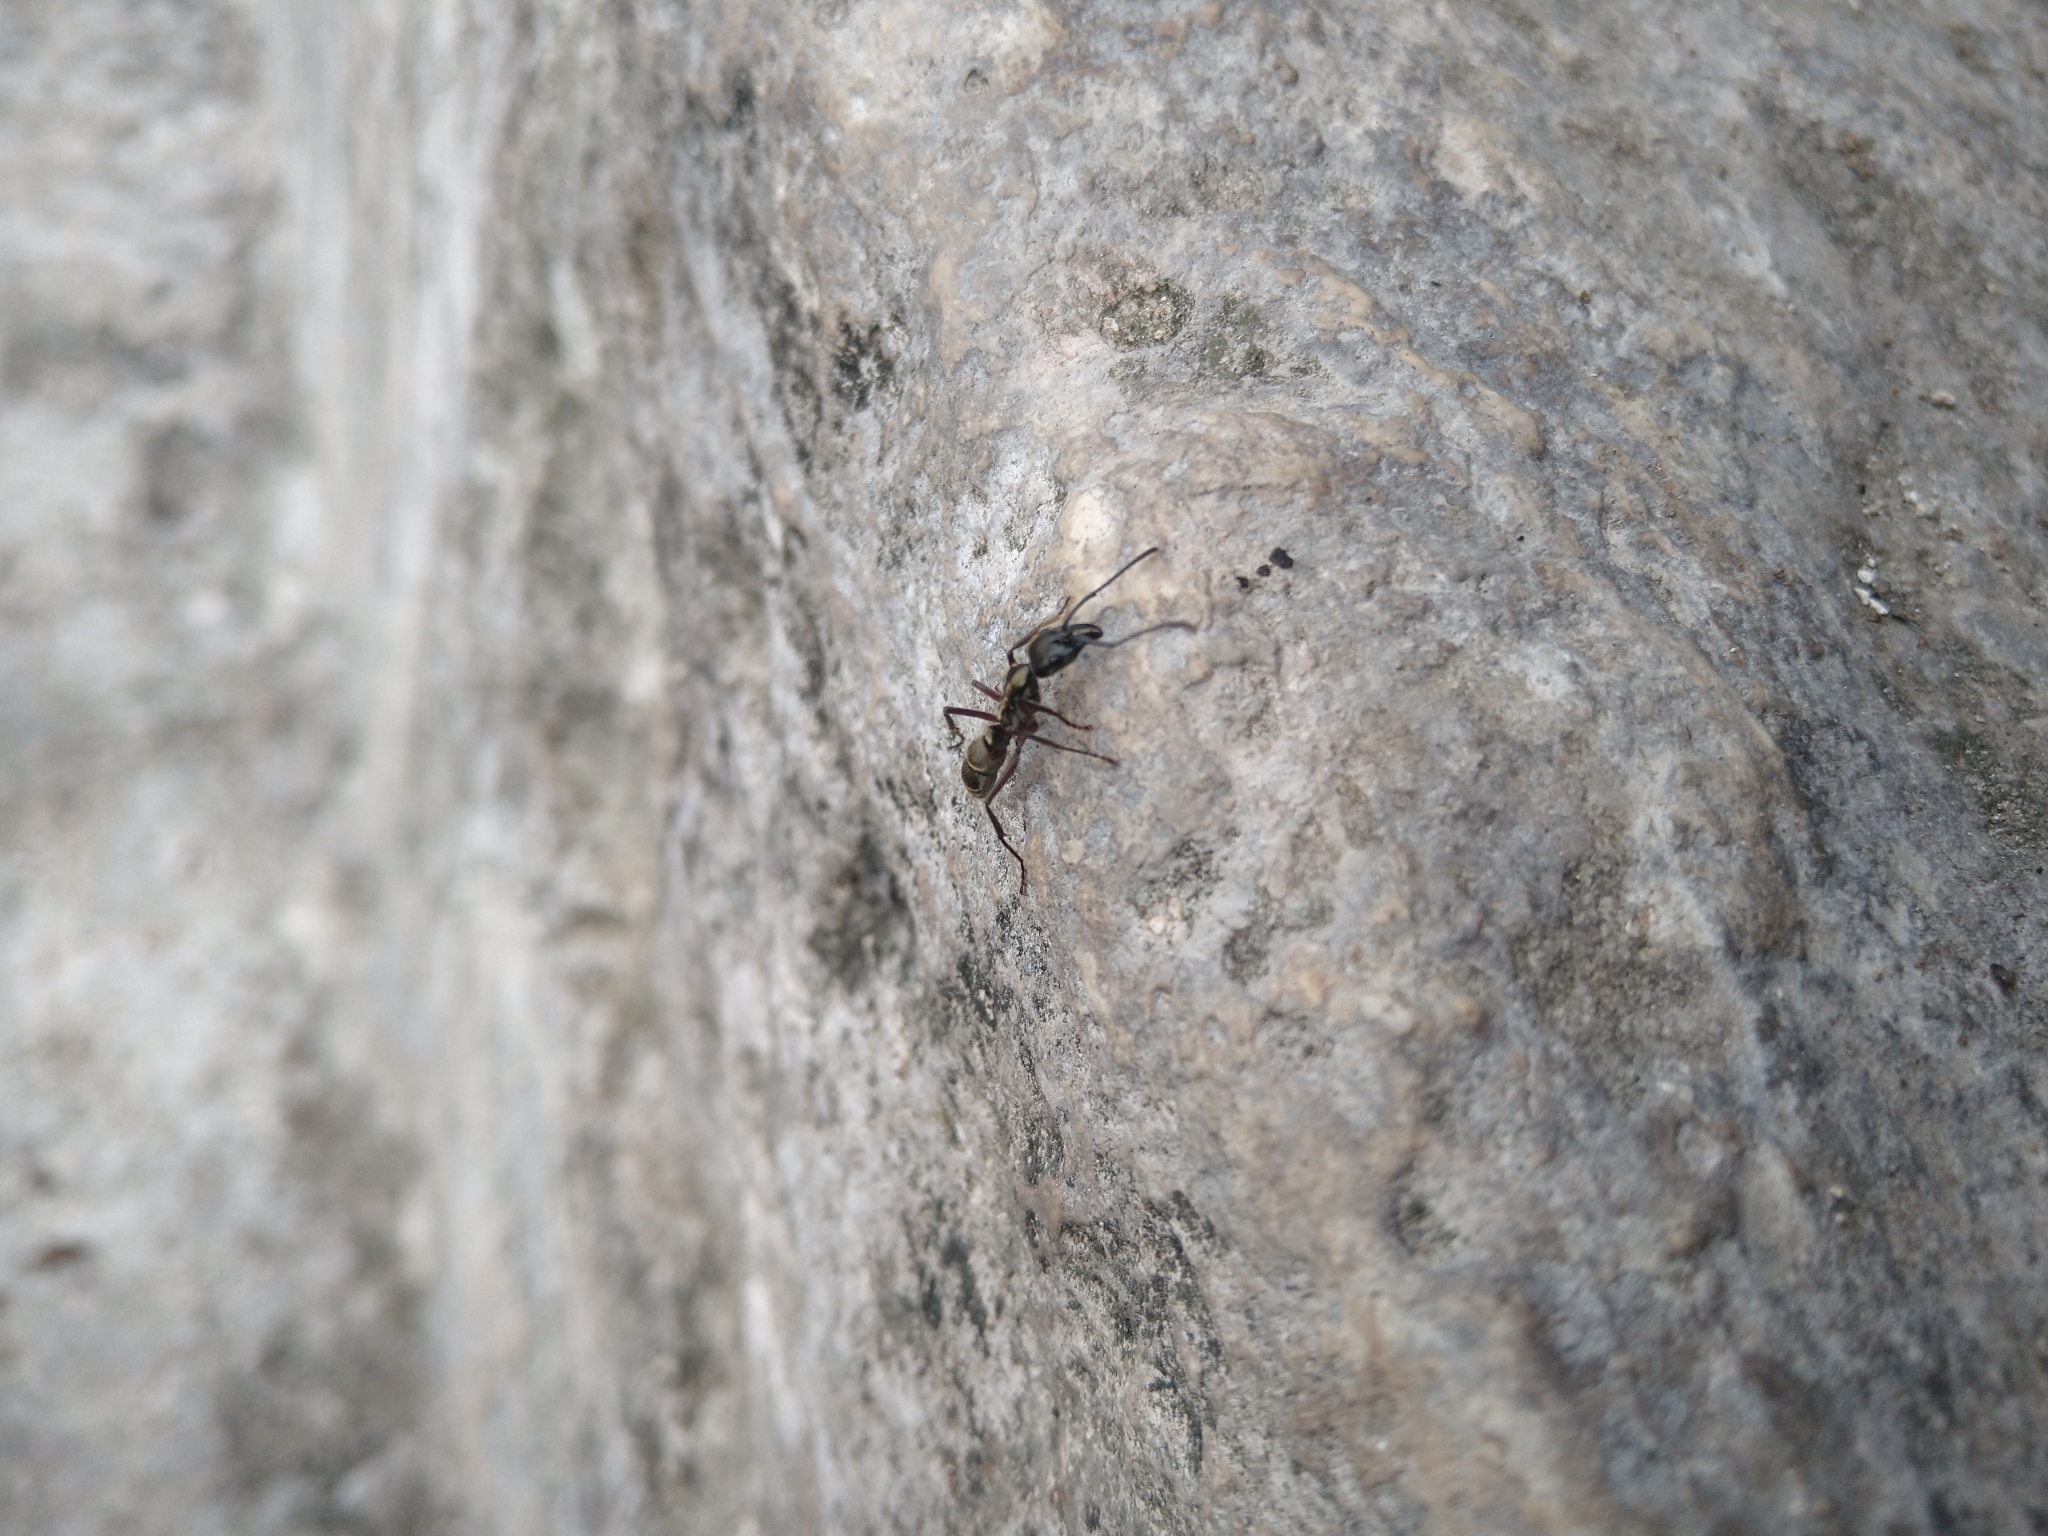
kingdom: Animalia
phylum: Arthropoda
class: Insecta
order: Hymenoptera
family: Formicidae
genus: Pachycondyla
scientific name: Pachycondyla villosa
